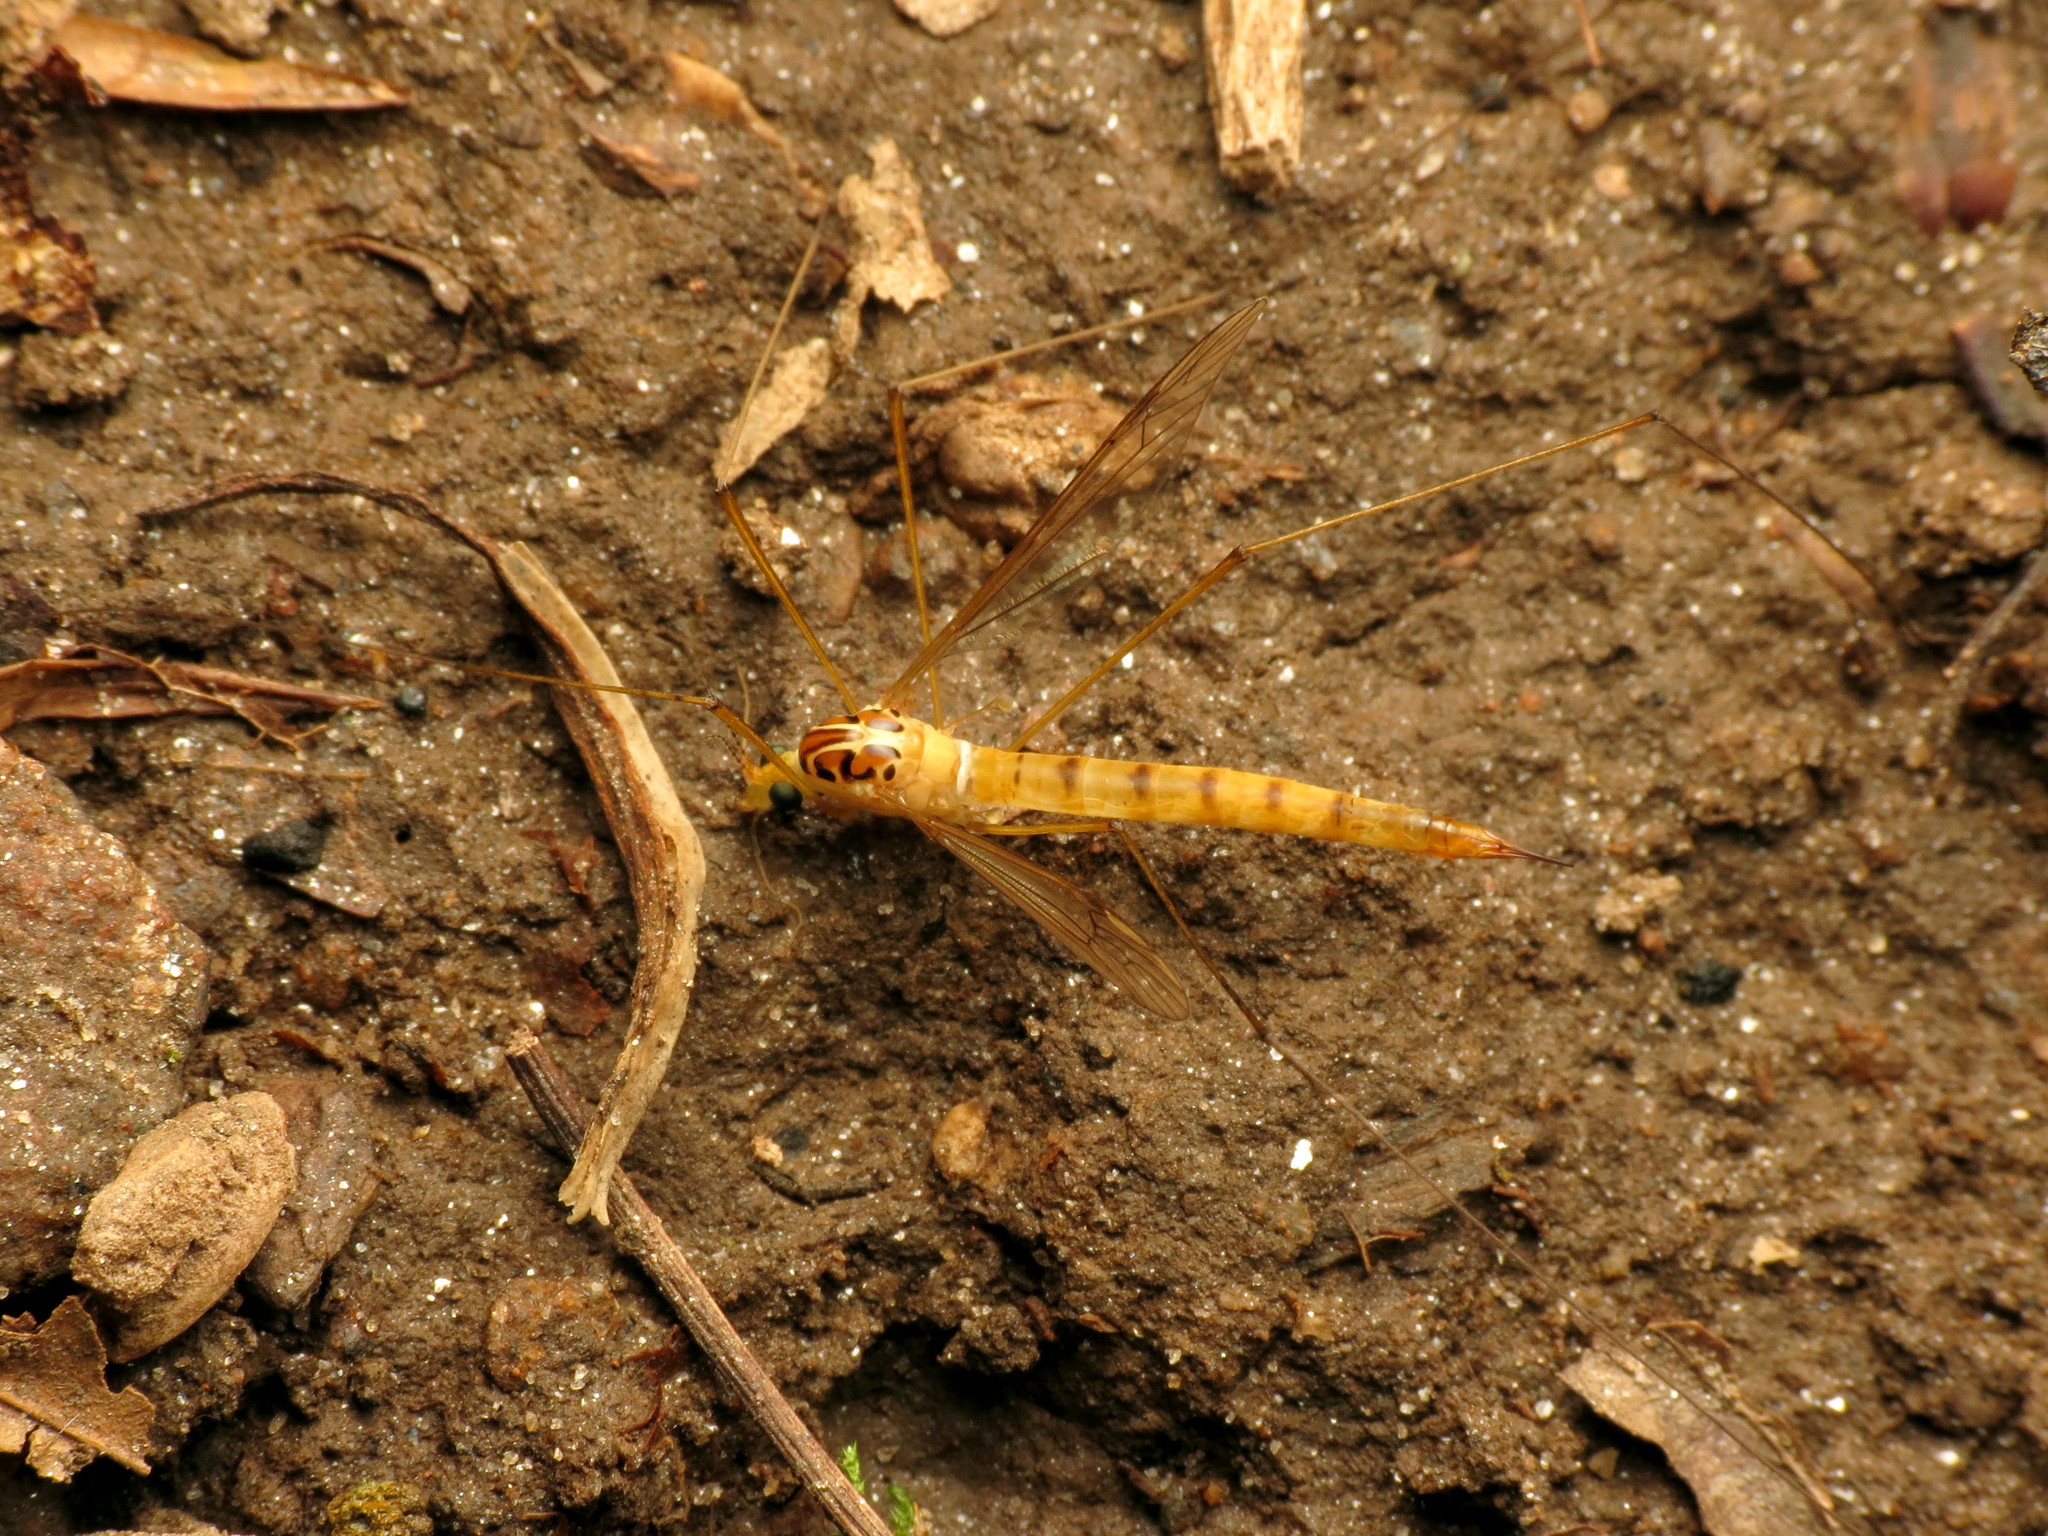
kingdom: Animalia
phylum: Arthropoda
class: Insecta
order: Diptera
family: Tipulidae
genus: Nephrotoma
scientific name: Nephrotoma virescens
